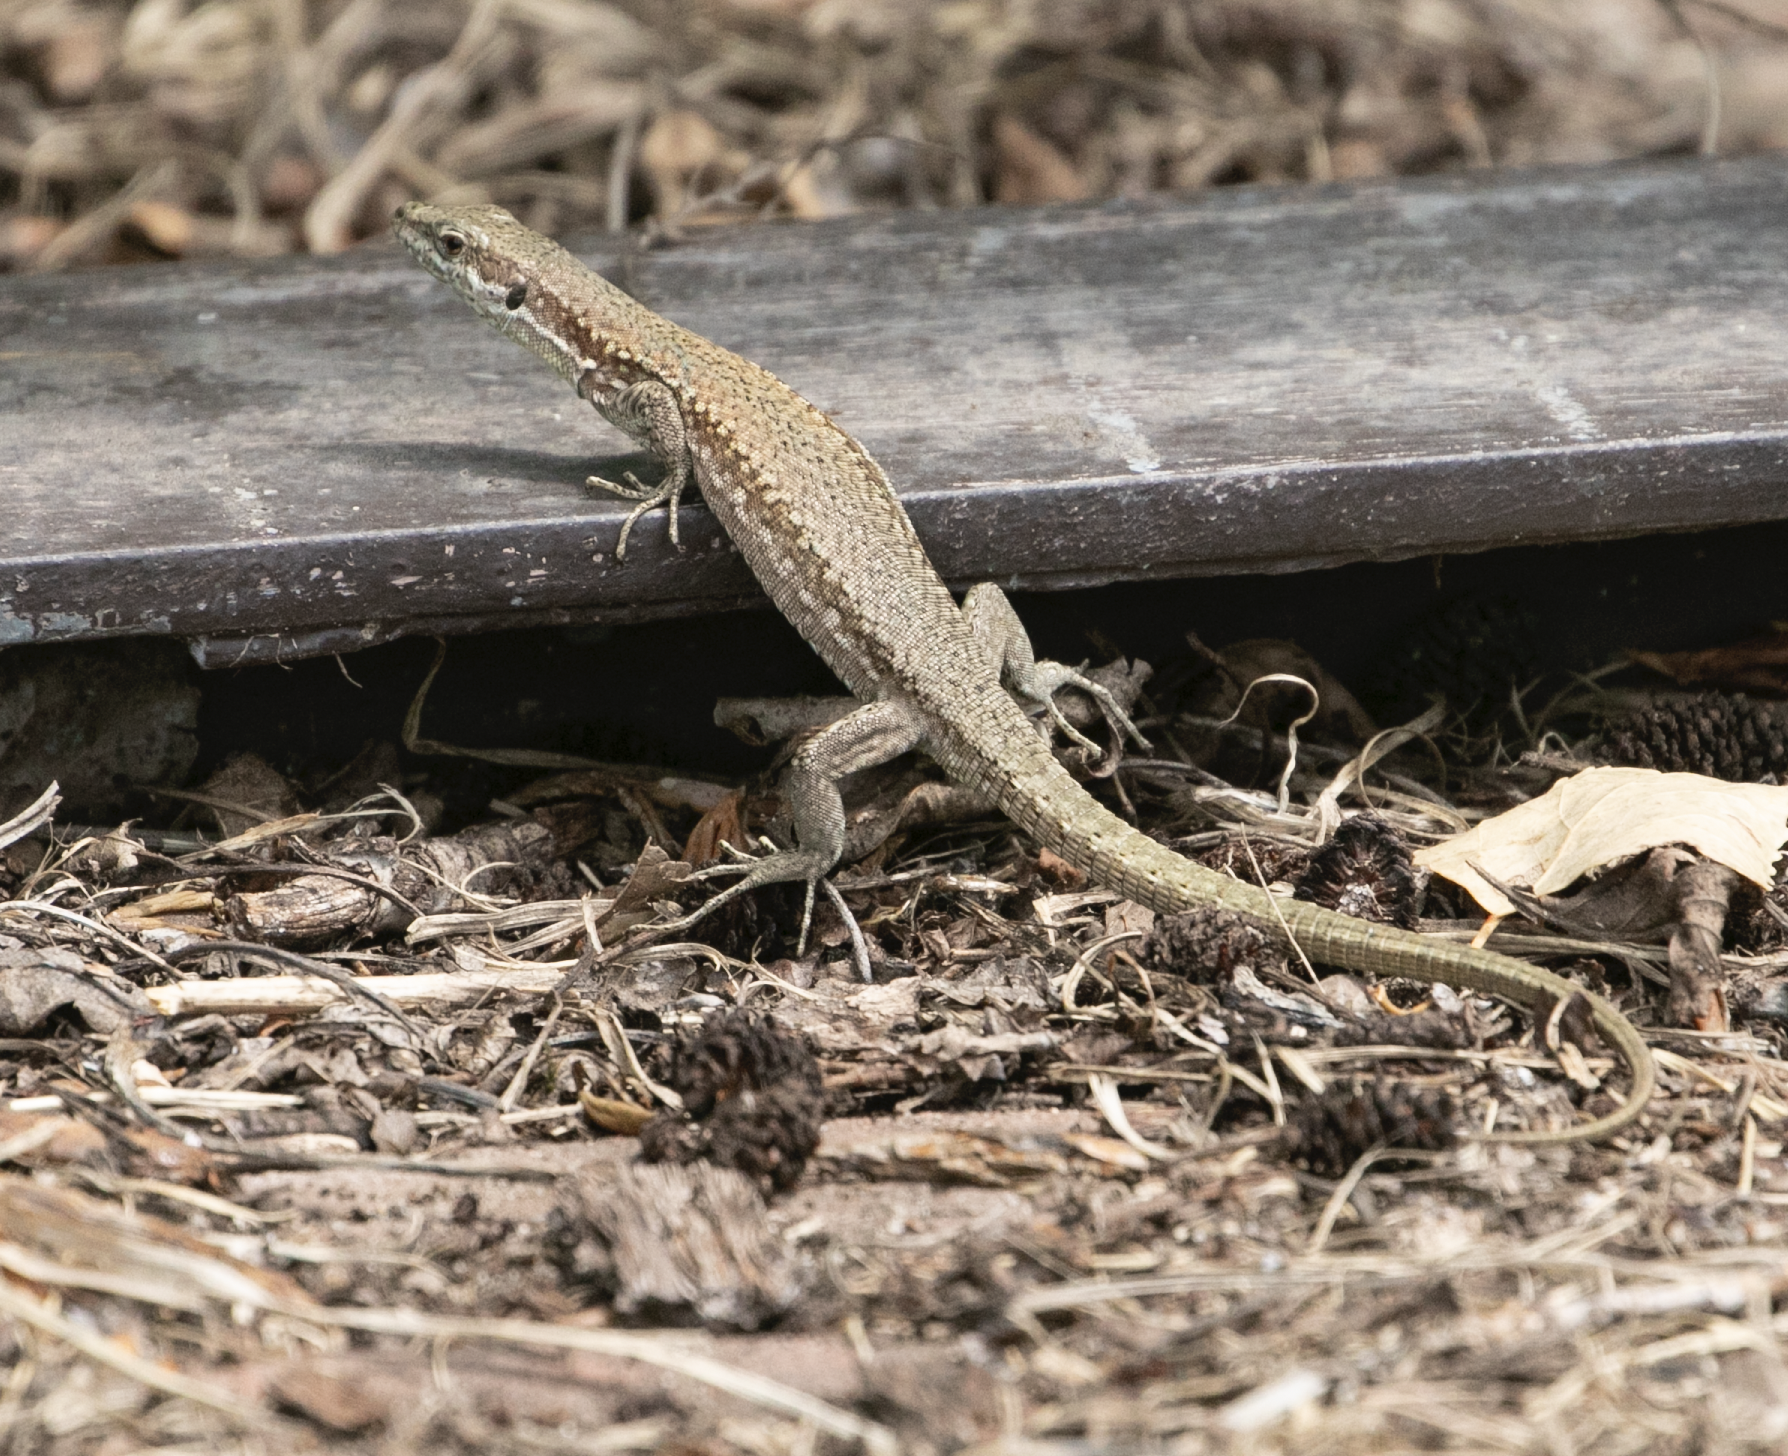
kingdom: Animalia
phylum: Chordata
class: Squamata
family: Lacertidae
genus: Podarcis
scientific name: Podarcis muralis
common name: Common wall lizard
